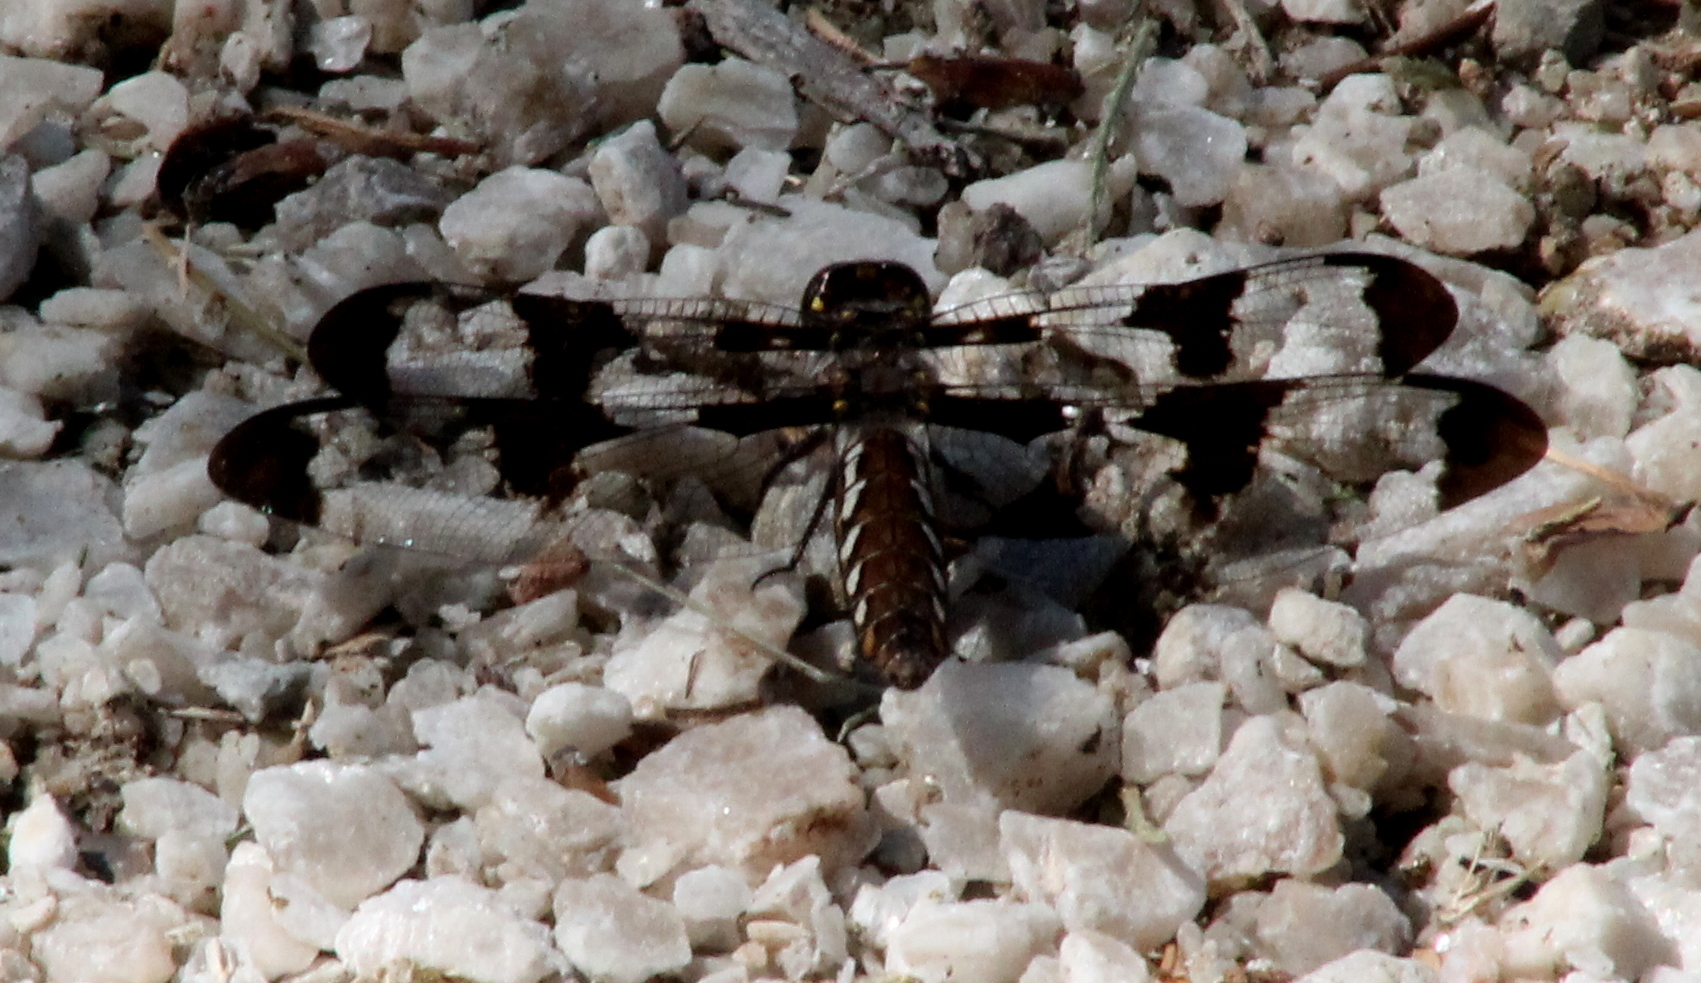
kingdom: Animalia
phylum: Arthropoda
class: Insecta
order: Odonata
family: Libellulidae
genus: Plathemis
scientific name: Plathemis lydia
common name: Common whitetail
